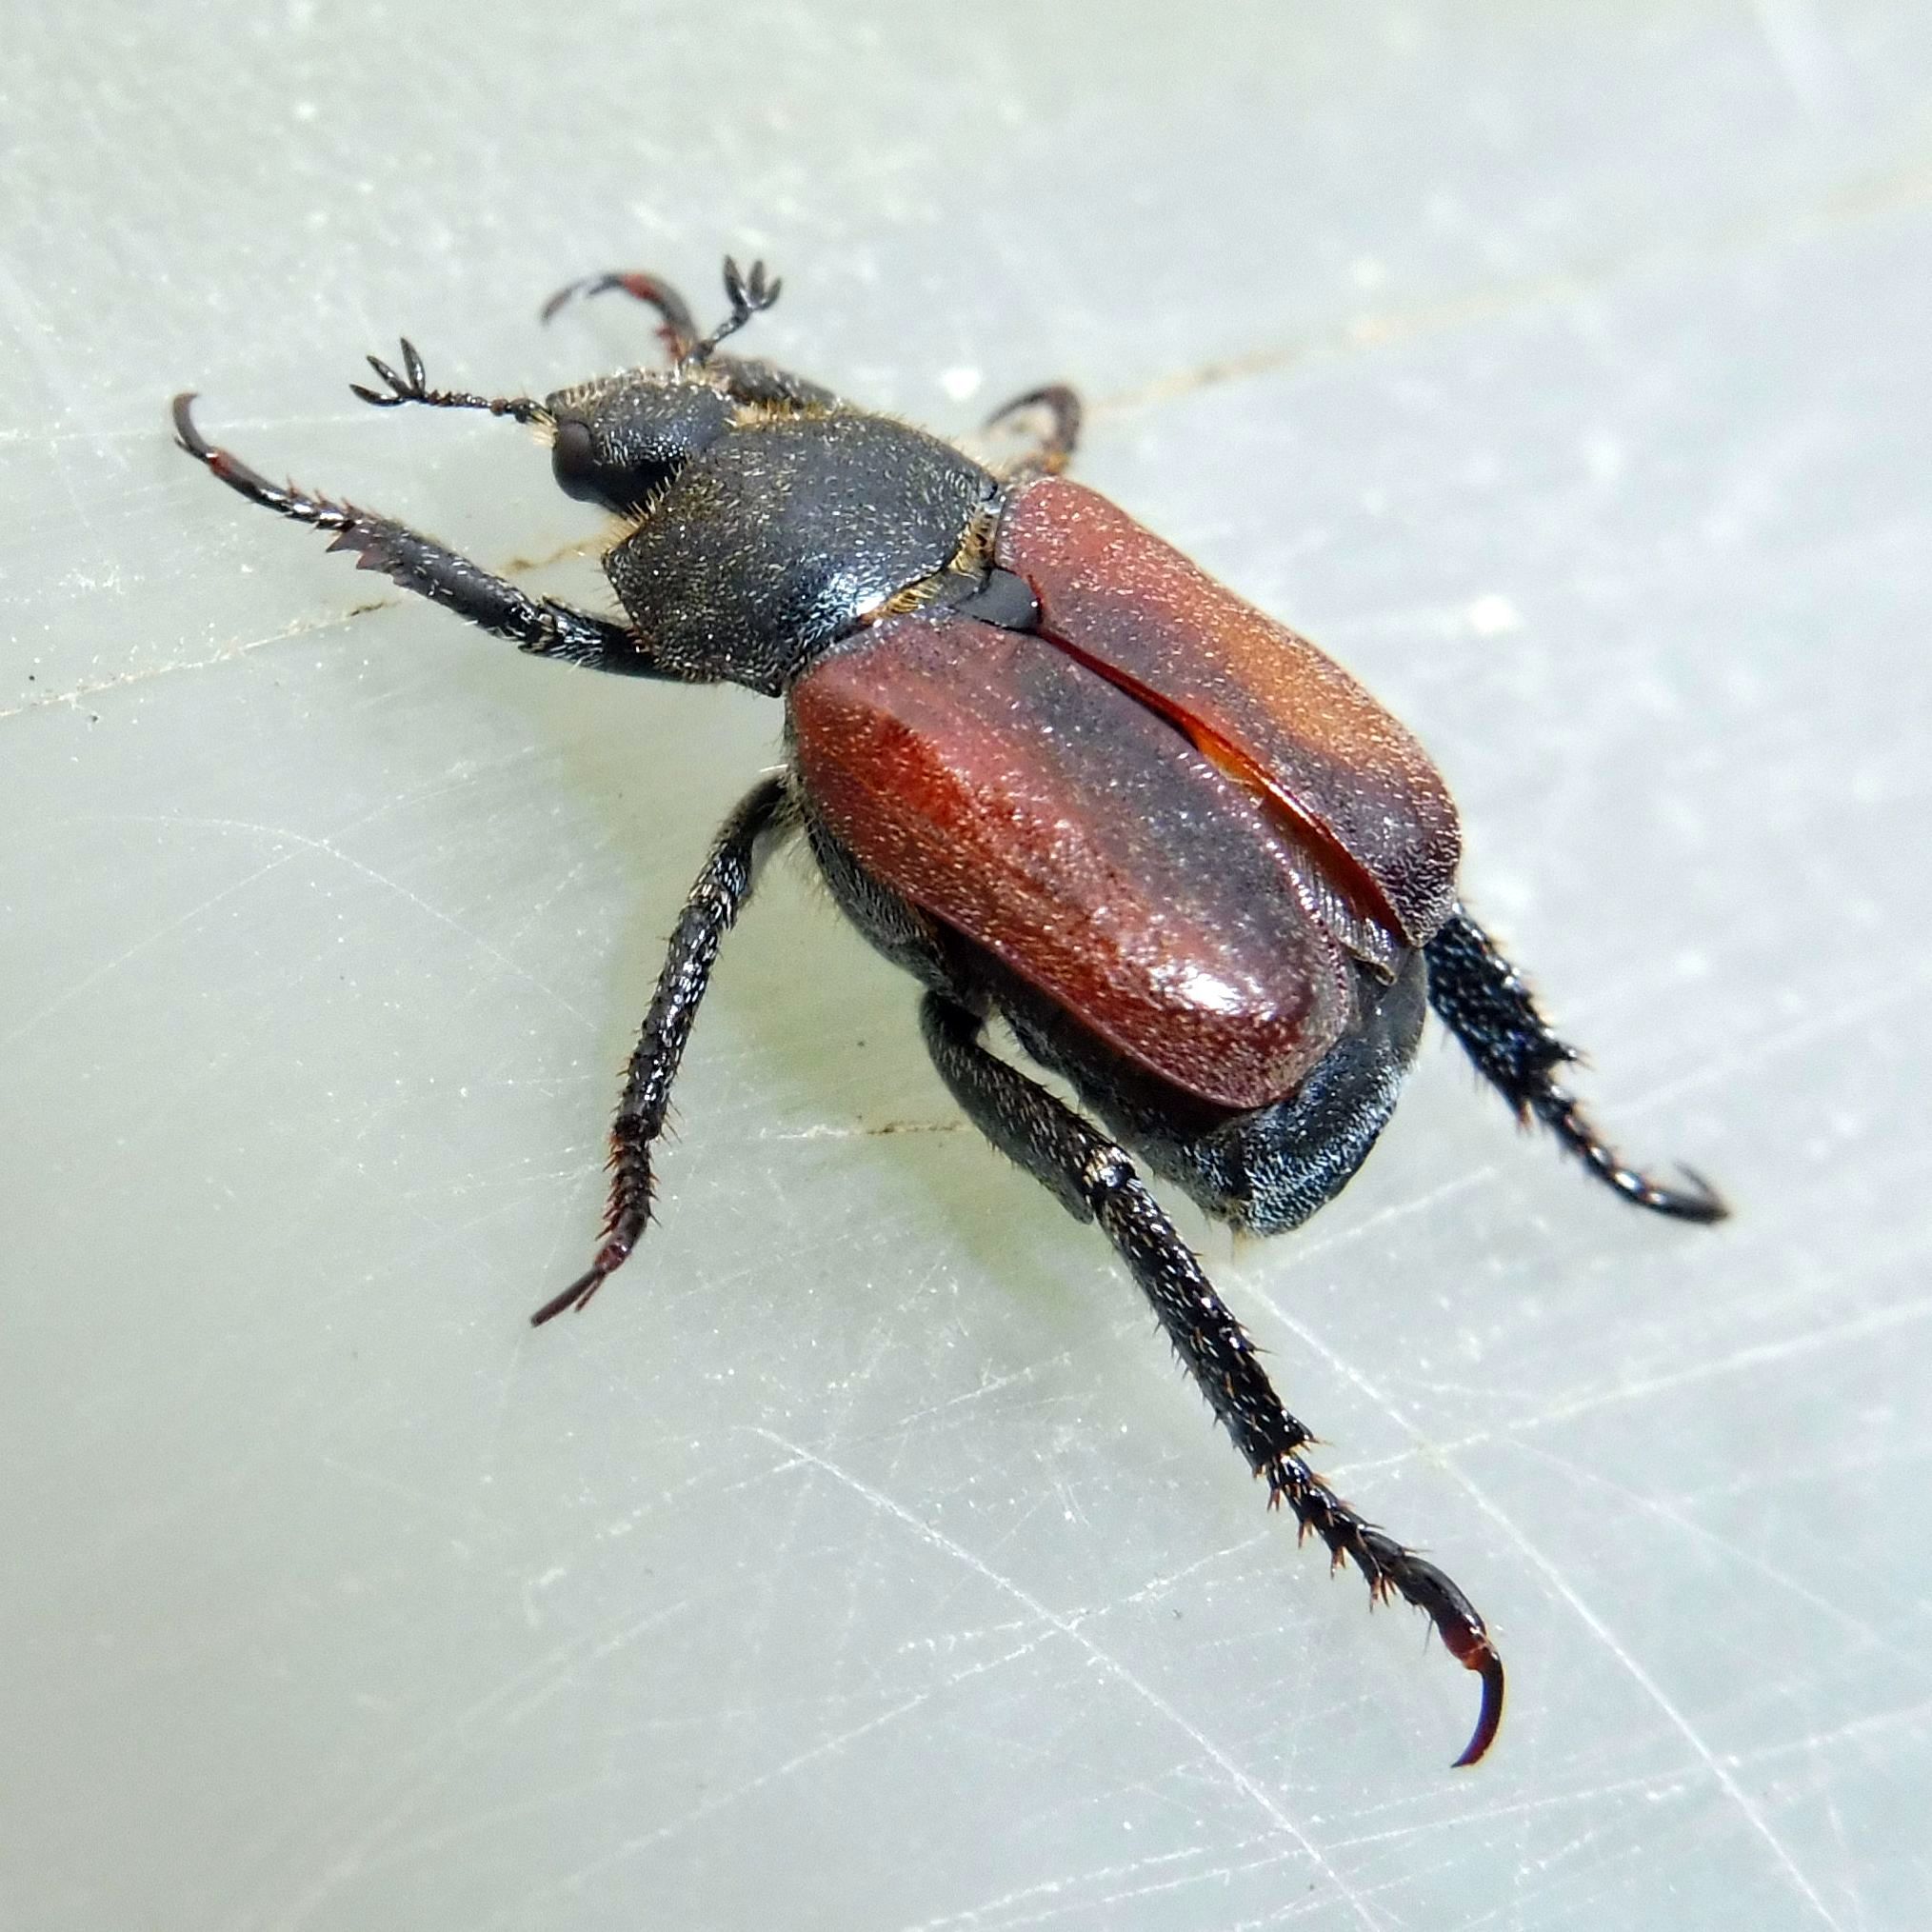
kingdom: Animalia
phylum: Arthropoda
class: Insecta
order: Coleoptera
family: Scarabaeidae
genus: Hoplia
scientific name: Hoplia philanthus
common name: Welsh chafer
